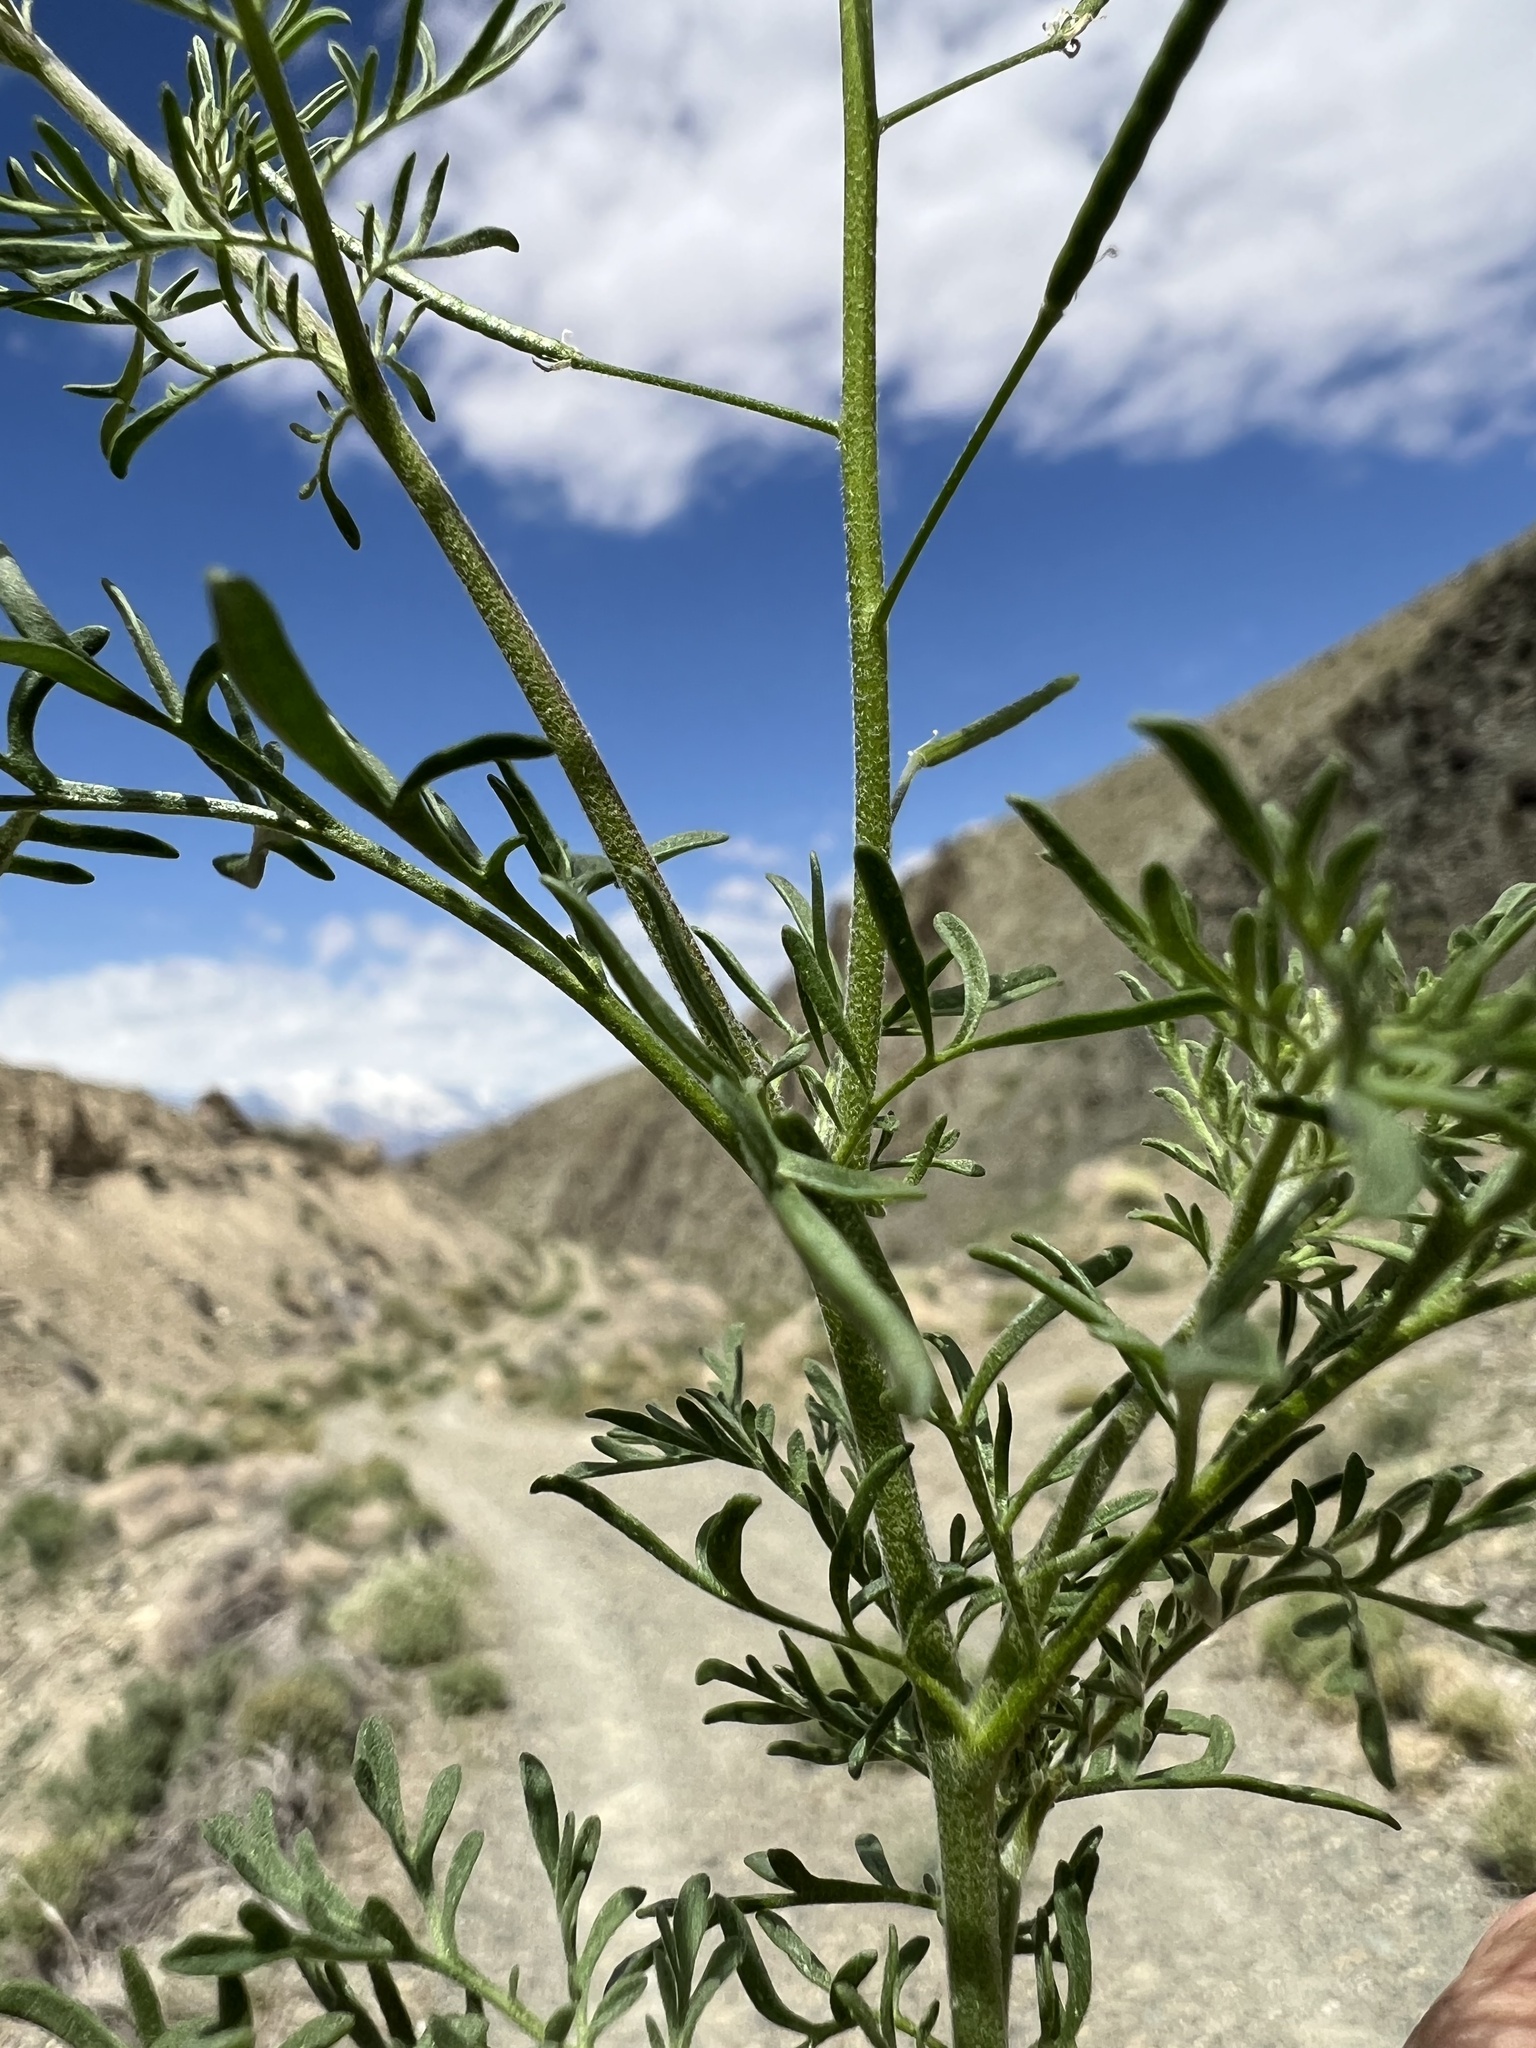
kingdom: Plantae
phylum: Tracheophyta
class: Magnoliopsida
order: Brassicales
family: Brassicaceae
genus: Descurainia
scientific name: Descurainia sophia
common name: Flixweed
